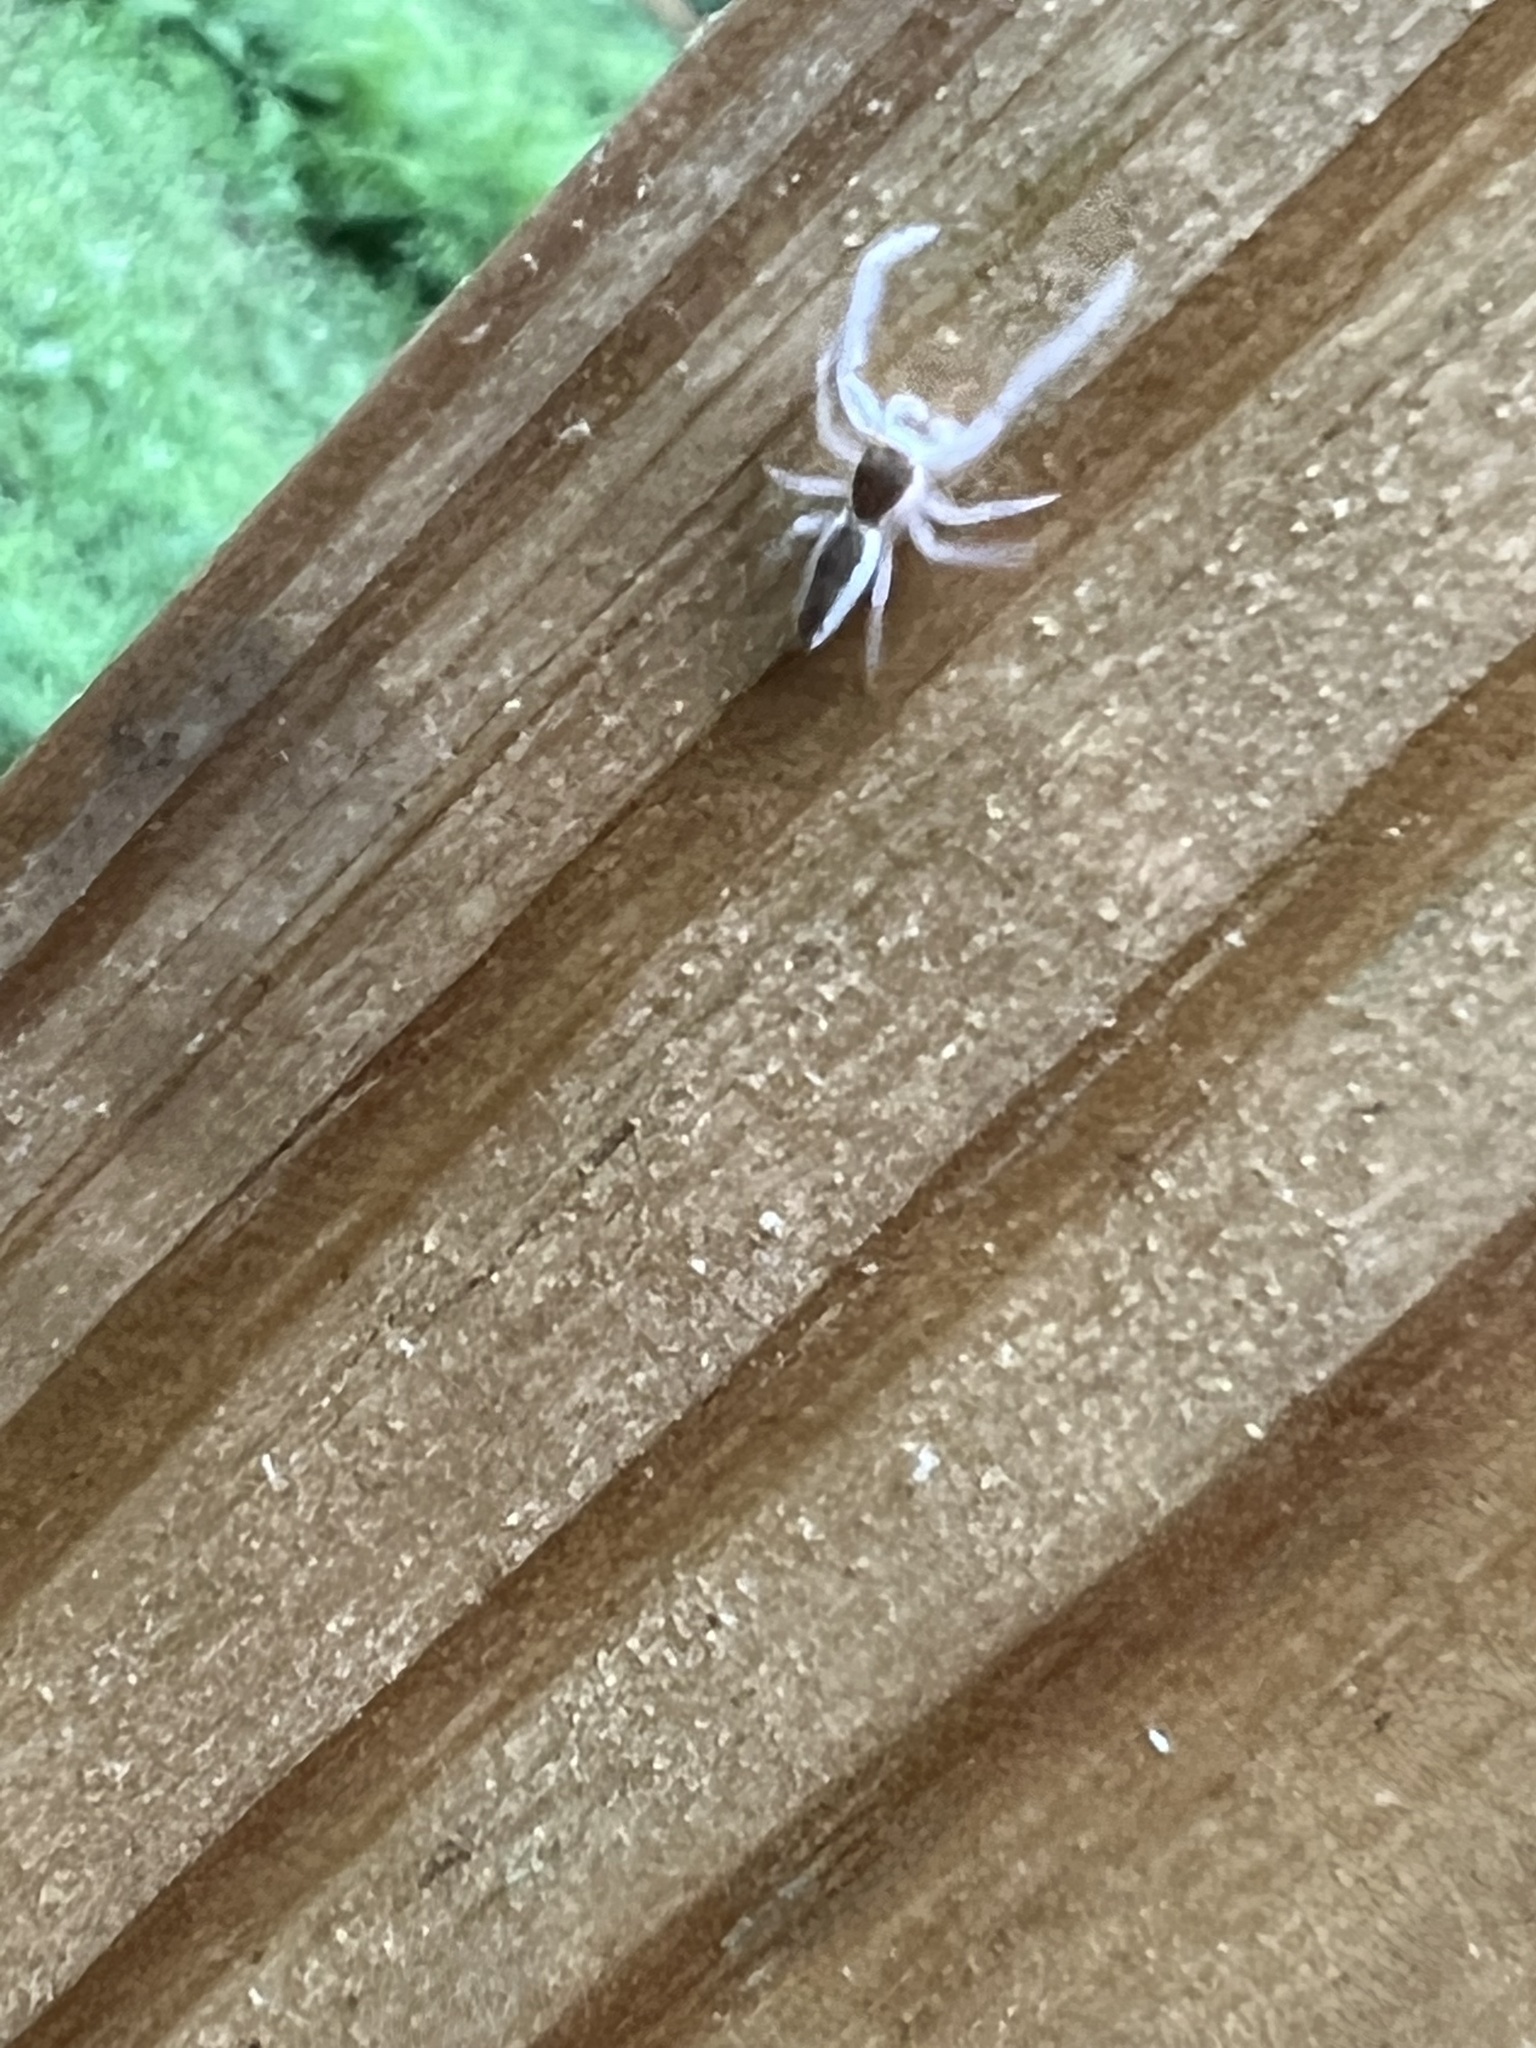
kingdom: Animalia
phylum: Arthropoda
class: Arachnida
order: Araneae
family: Salticidae
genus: Hentzia
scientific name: Hentzia mitrata
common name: White-jawed jumping spider
